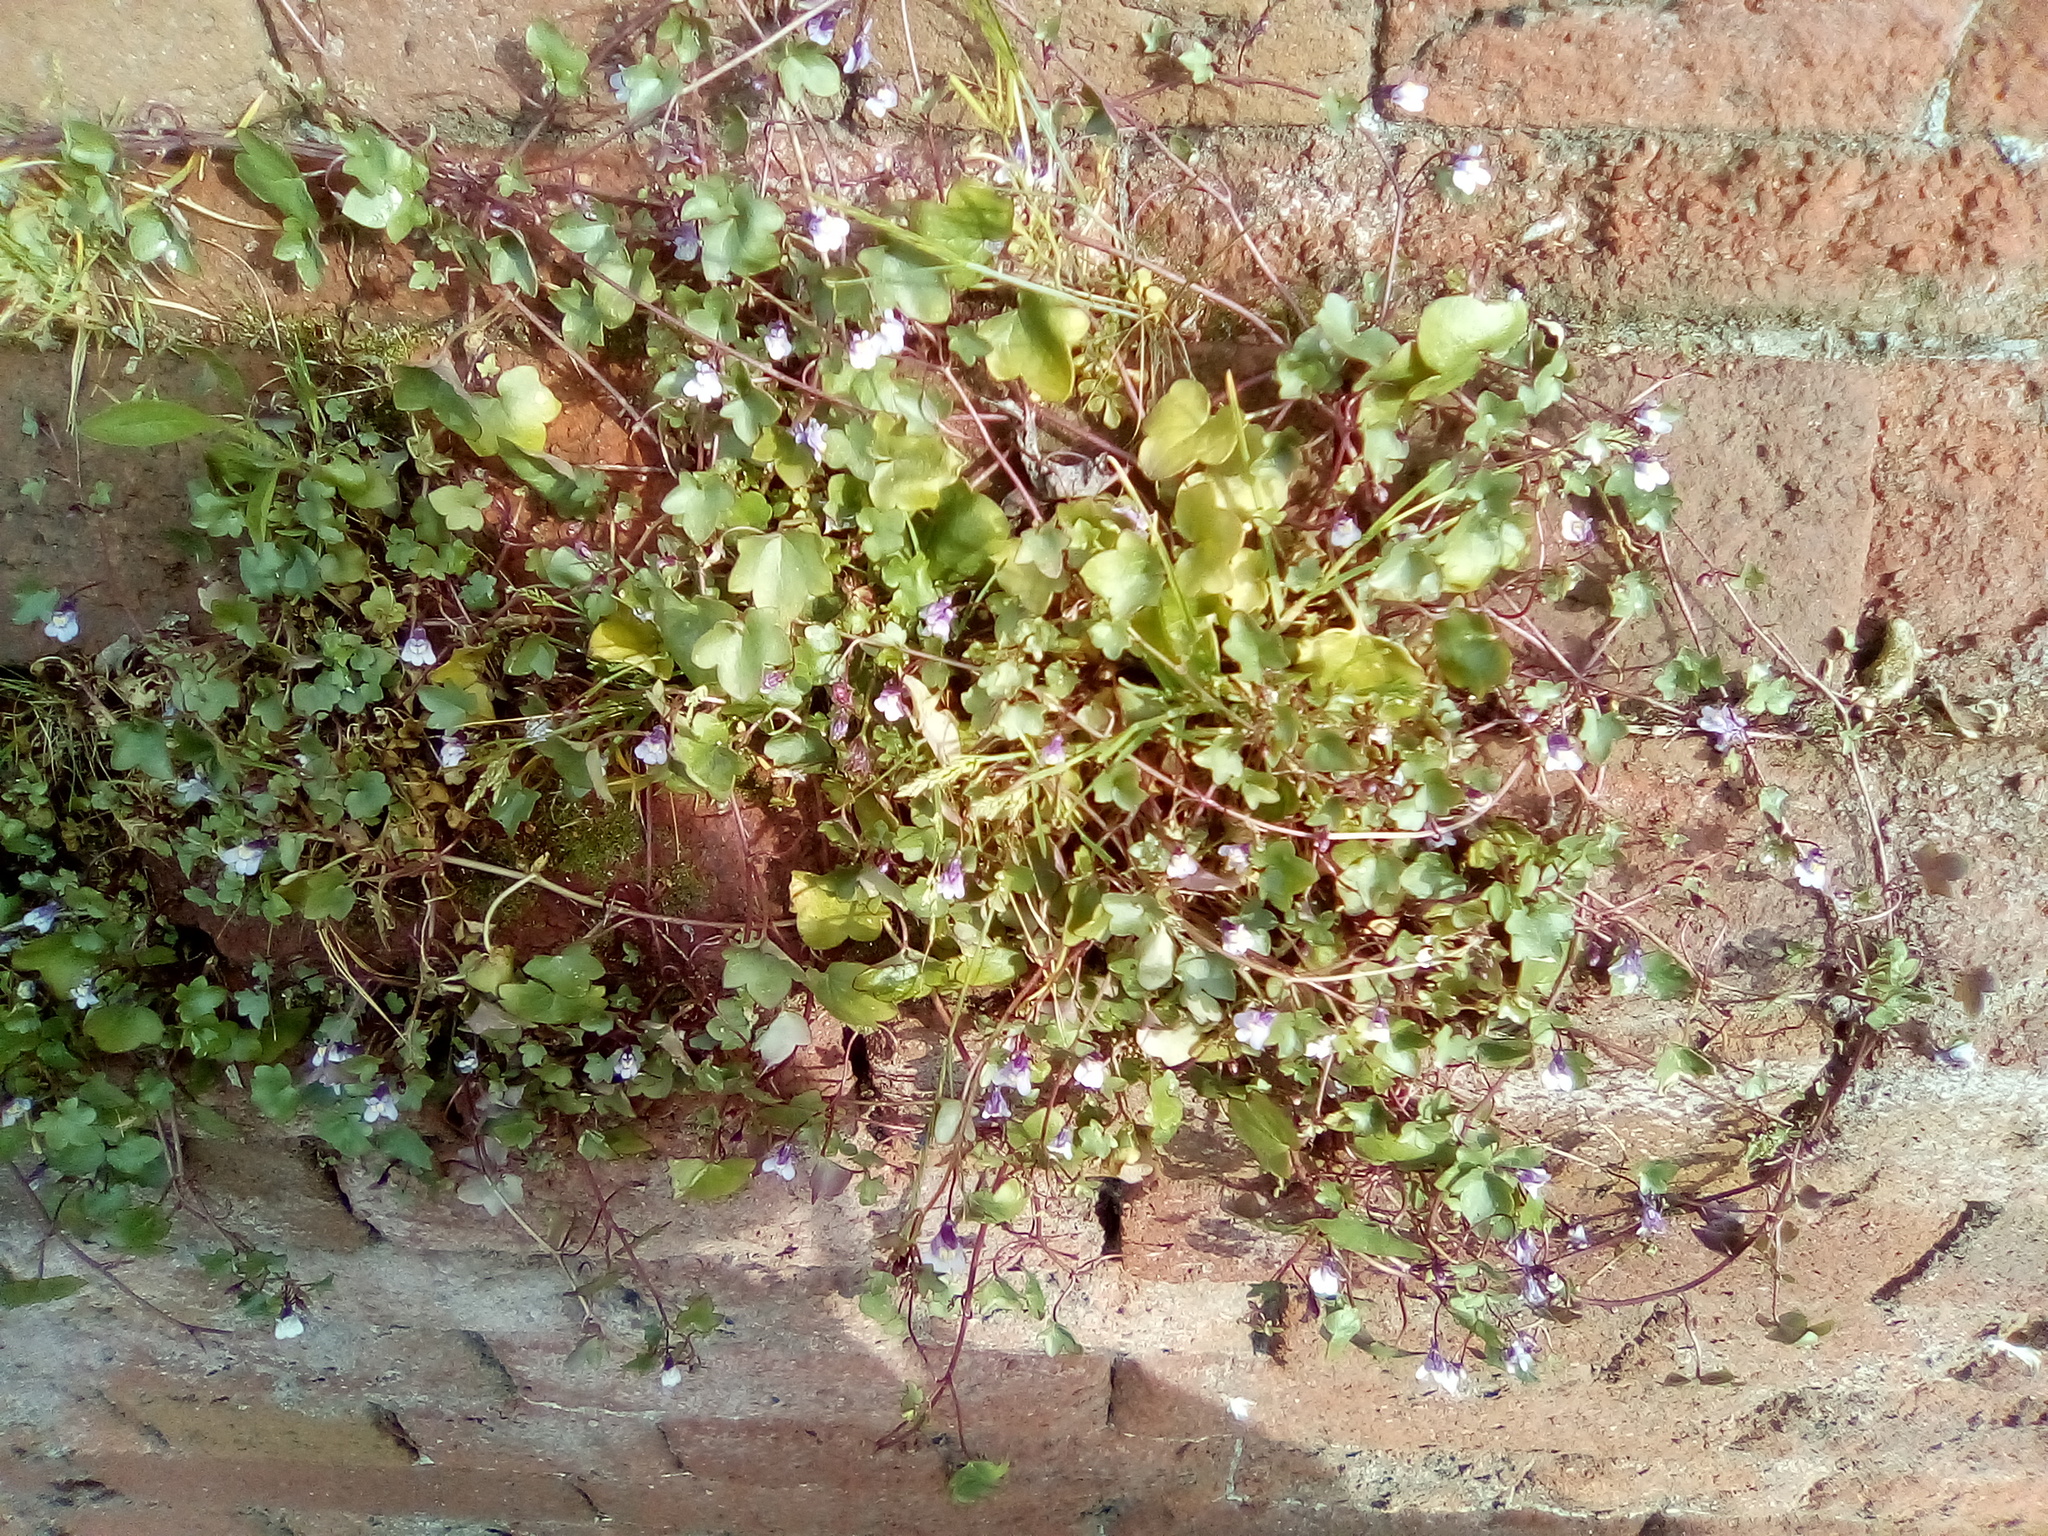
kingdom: Plantae
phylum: Tracheophyta
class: Magnoliopsida
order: Lamiales
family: Plantaginaceae
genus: Cymbalaria
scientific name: Cymbalaria muralis
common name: Ivy-leaved toadflax
